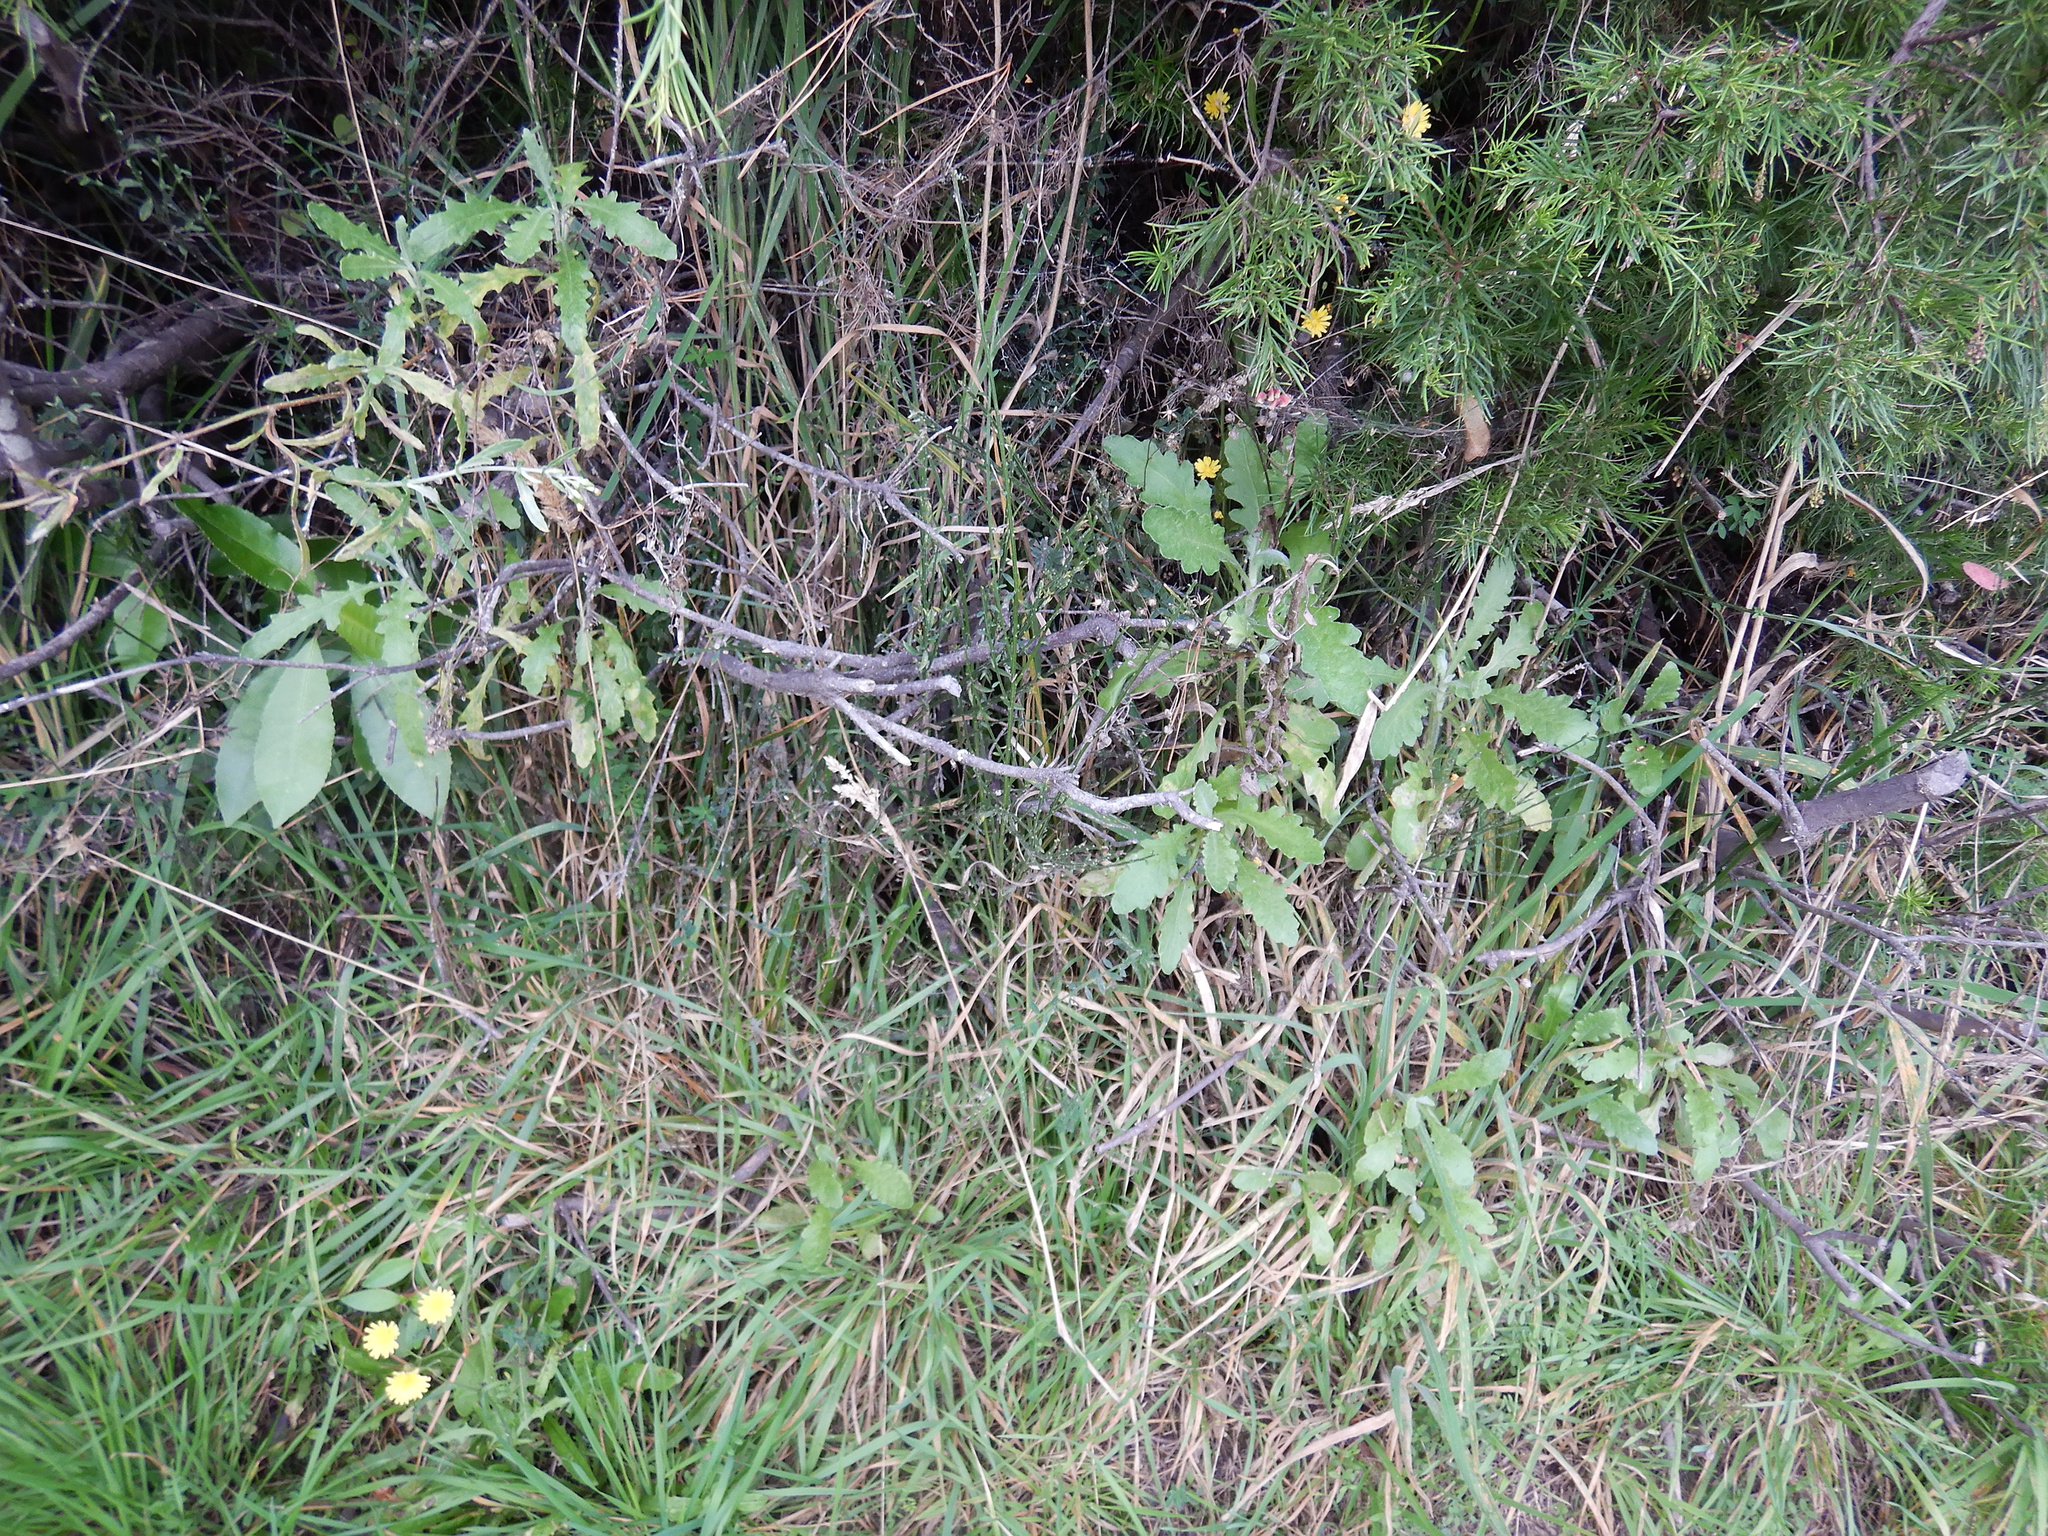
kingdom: Plantae
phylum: Tracheophyta
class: Magnoliopsida
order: Asterales
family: Asteraceae
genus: Senecio
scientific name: Senecio glomeratus
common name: Cutleaf burnweed
